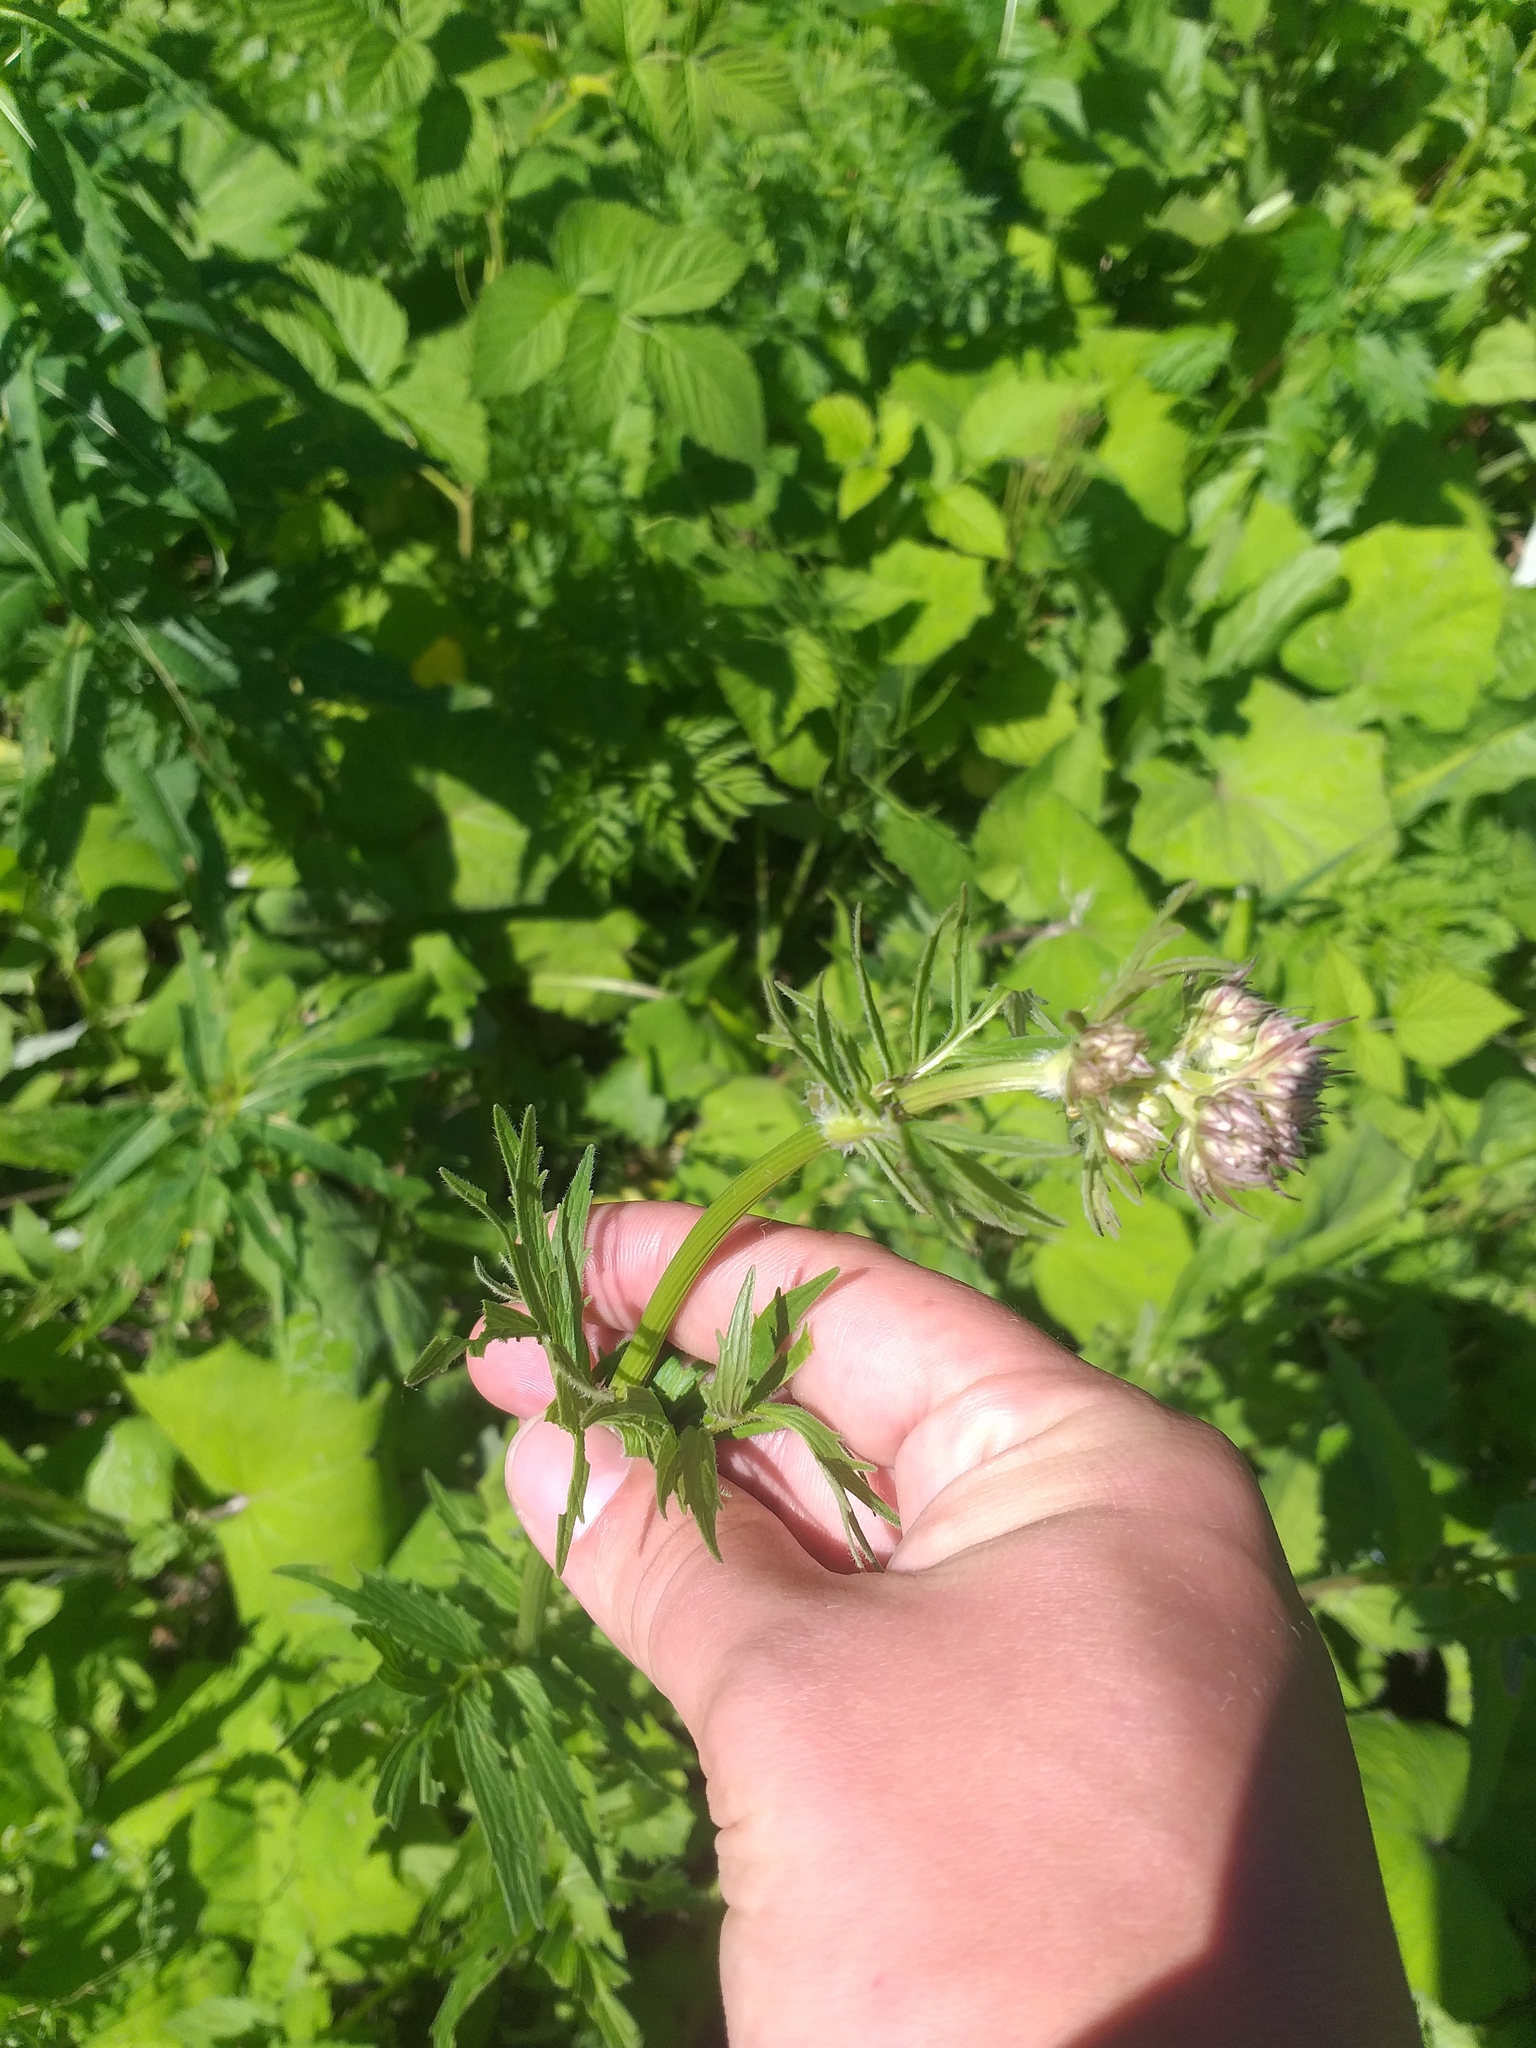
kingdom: Plantae
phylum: Tracheophyta
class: Magnoliopsida
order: Dipsacales
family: Caprifoliaceae
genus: Valeriana
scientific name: Valeriana officinalis
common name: Common valerian
